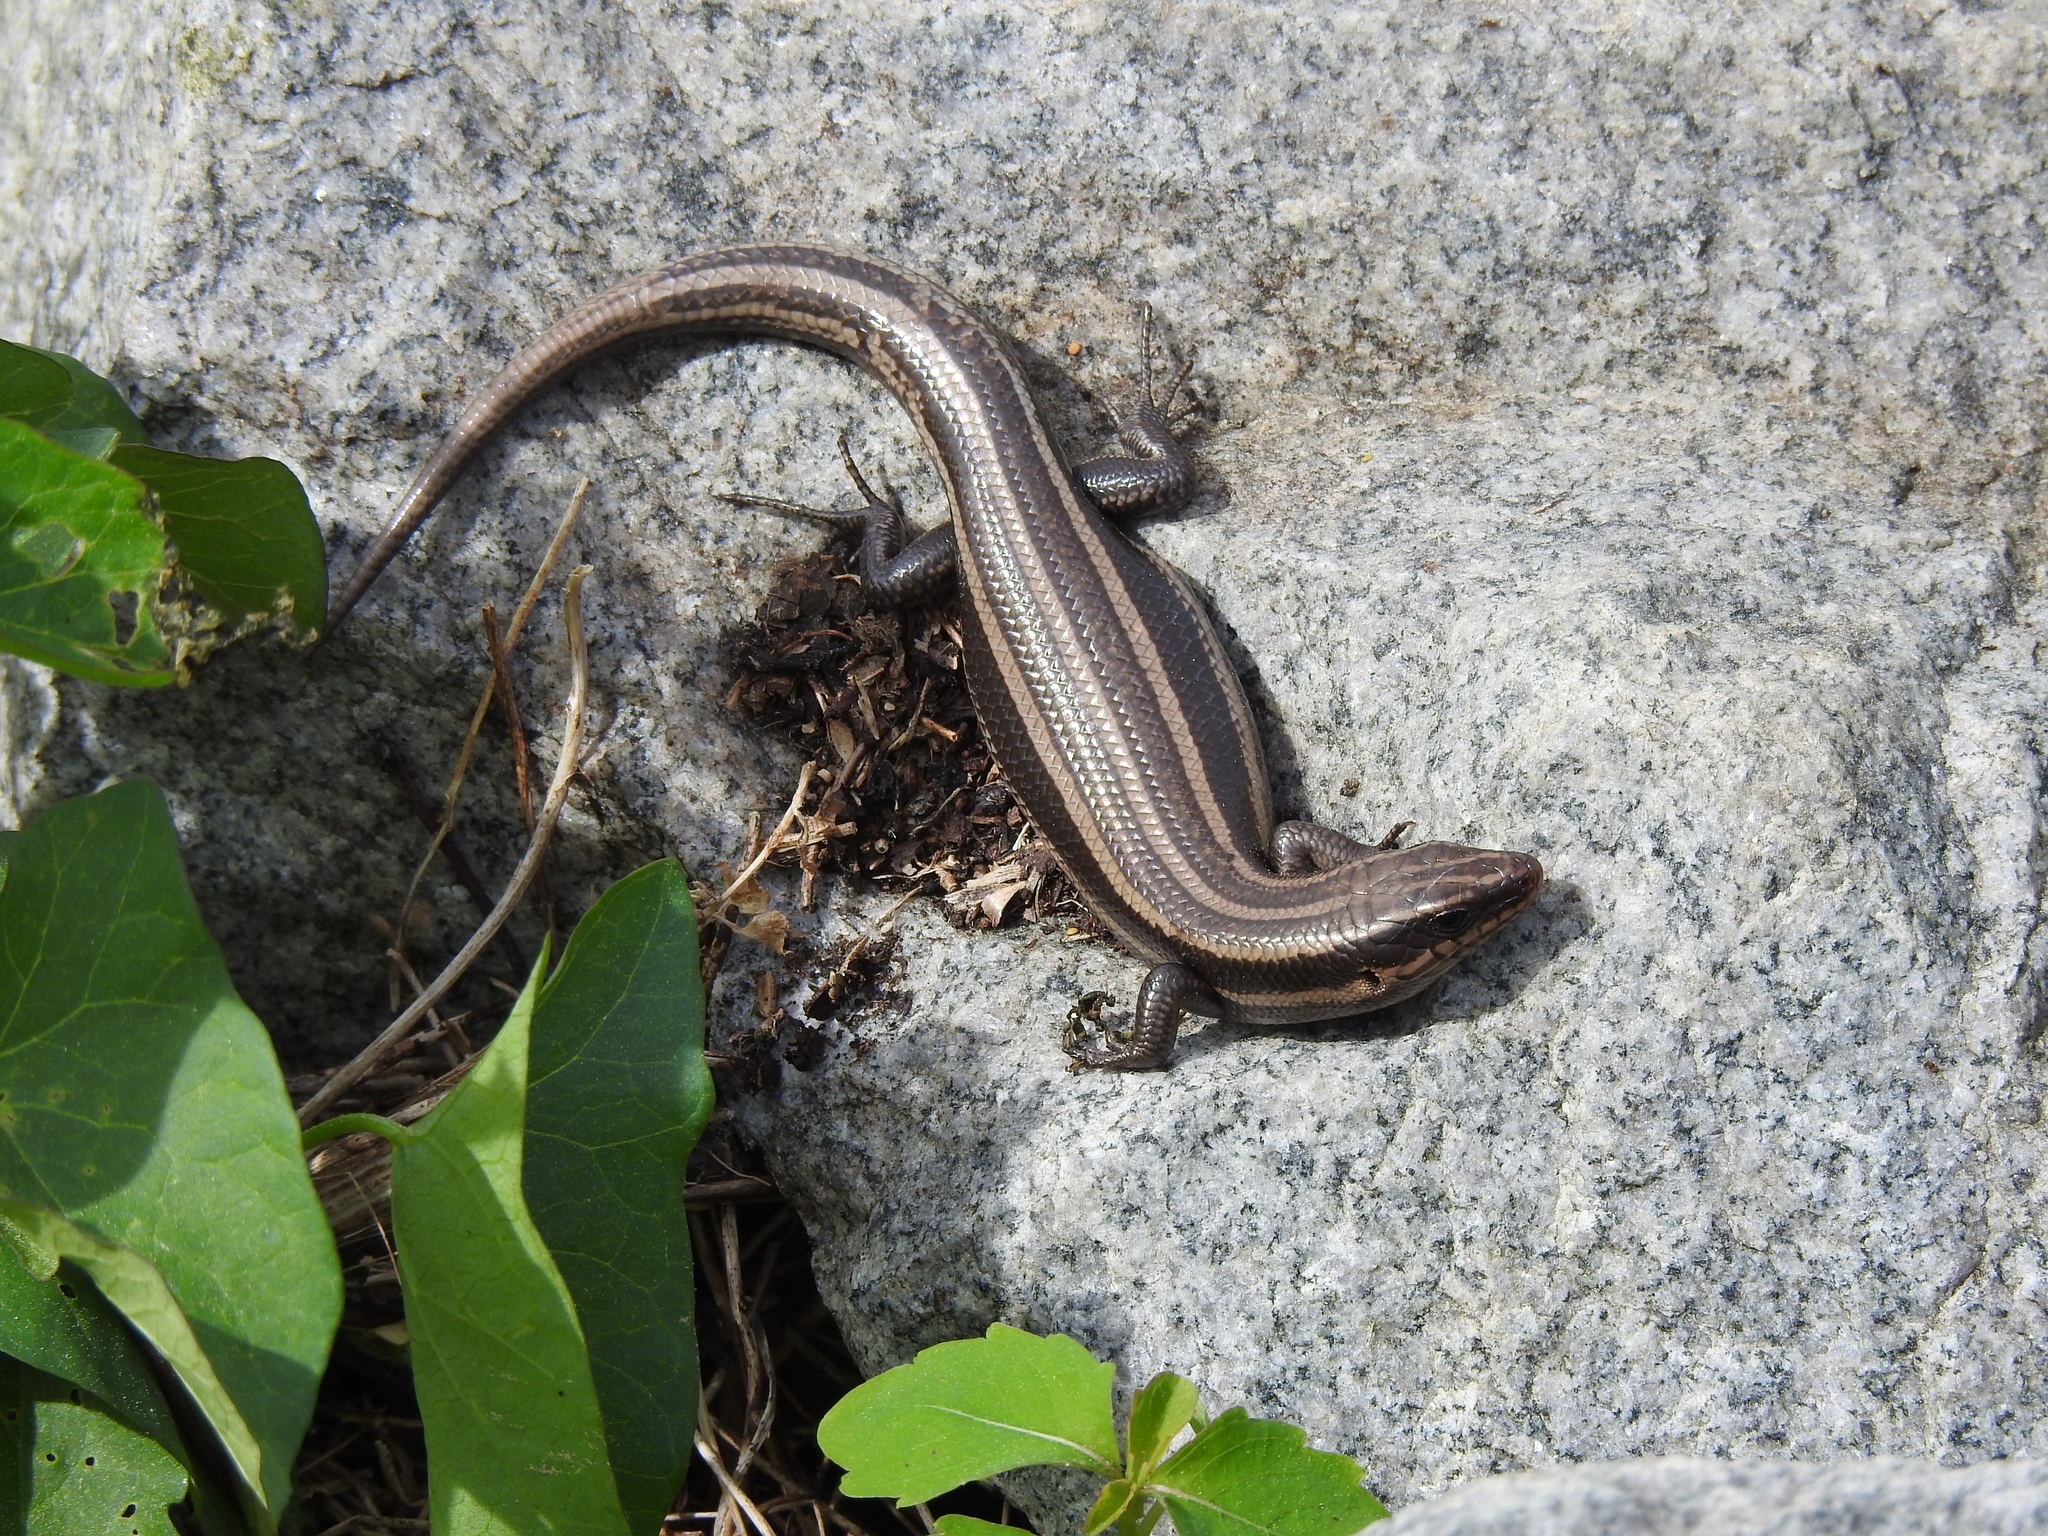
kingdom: Animalia
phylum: Chordata
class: Squamata
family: Scincidae
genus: Plestiodon
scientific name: Plestiodon fasciatus
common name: Five-lined skink
